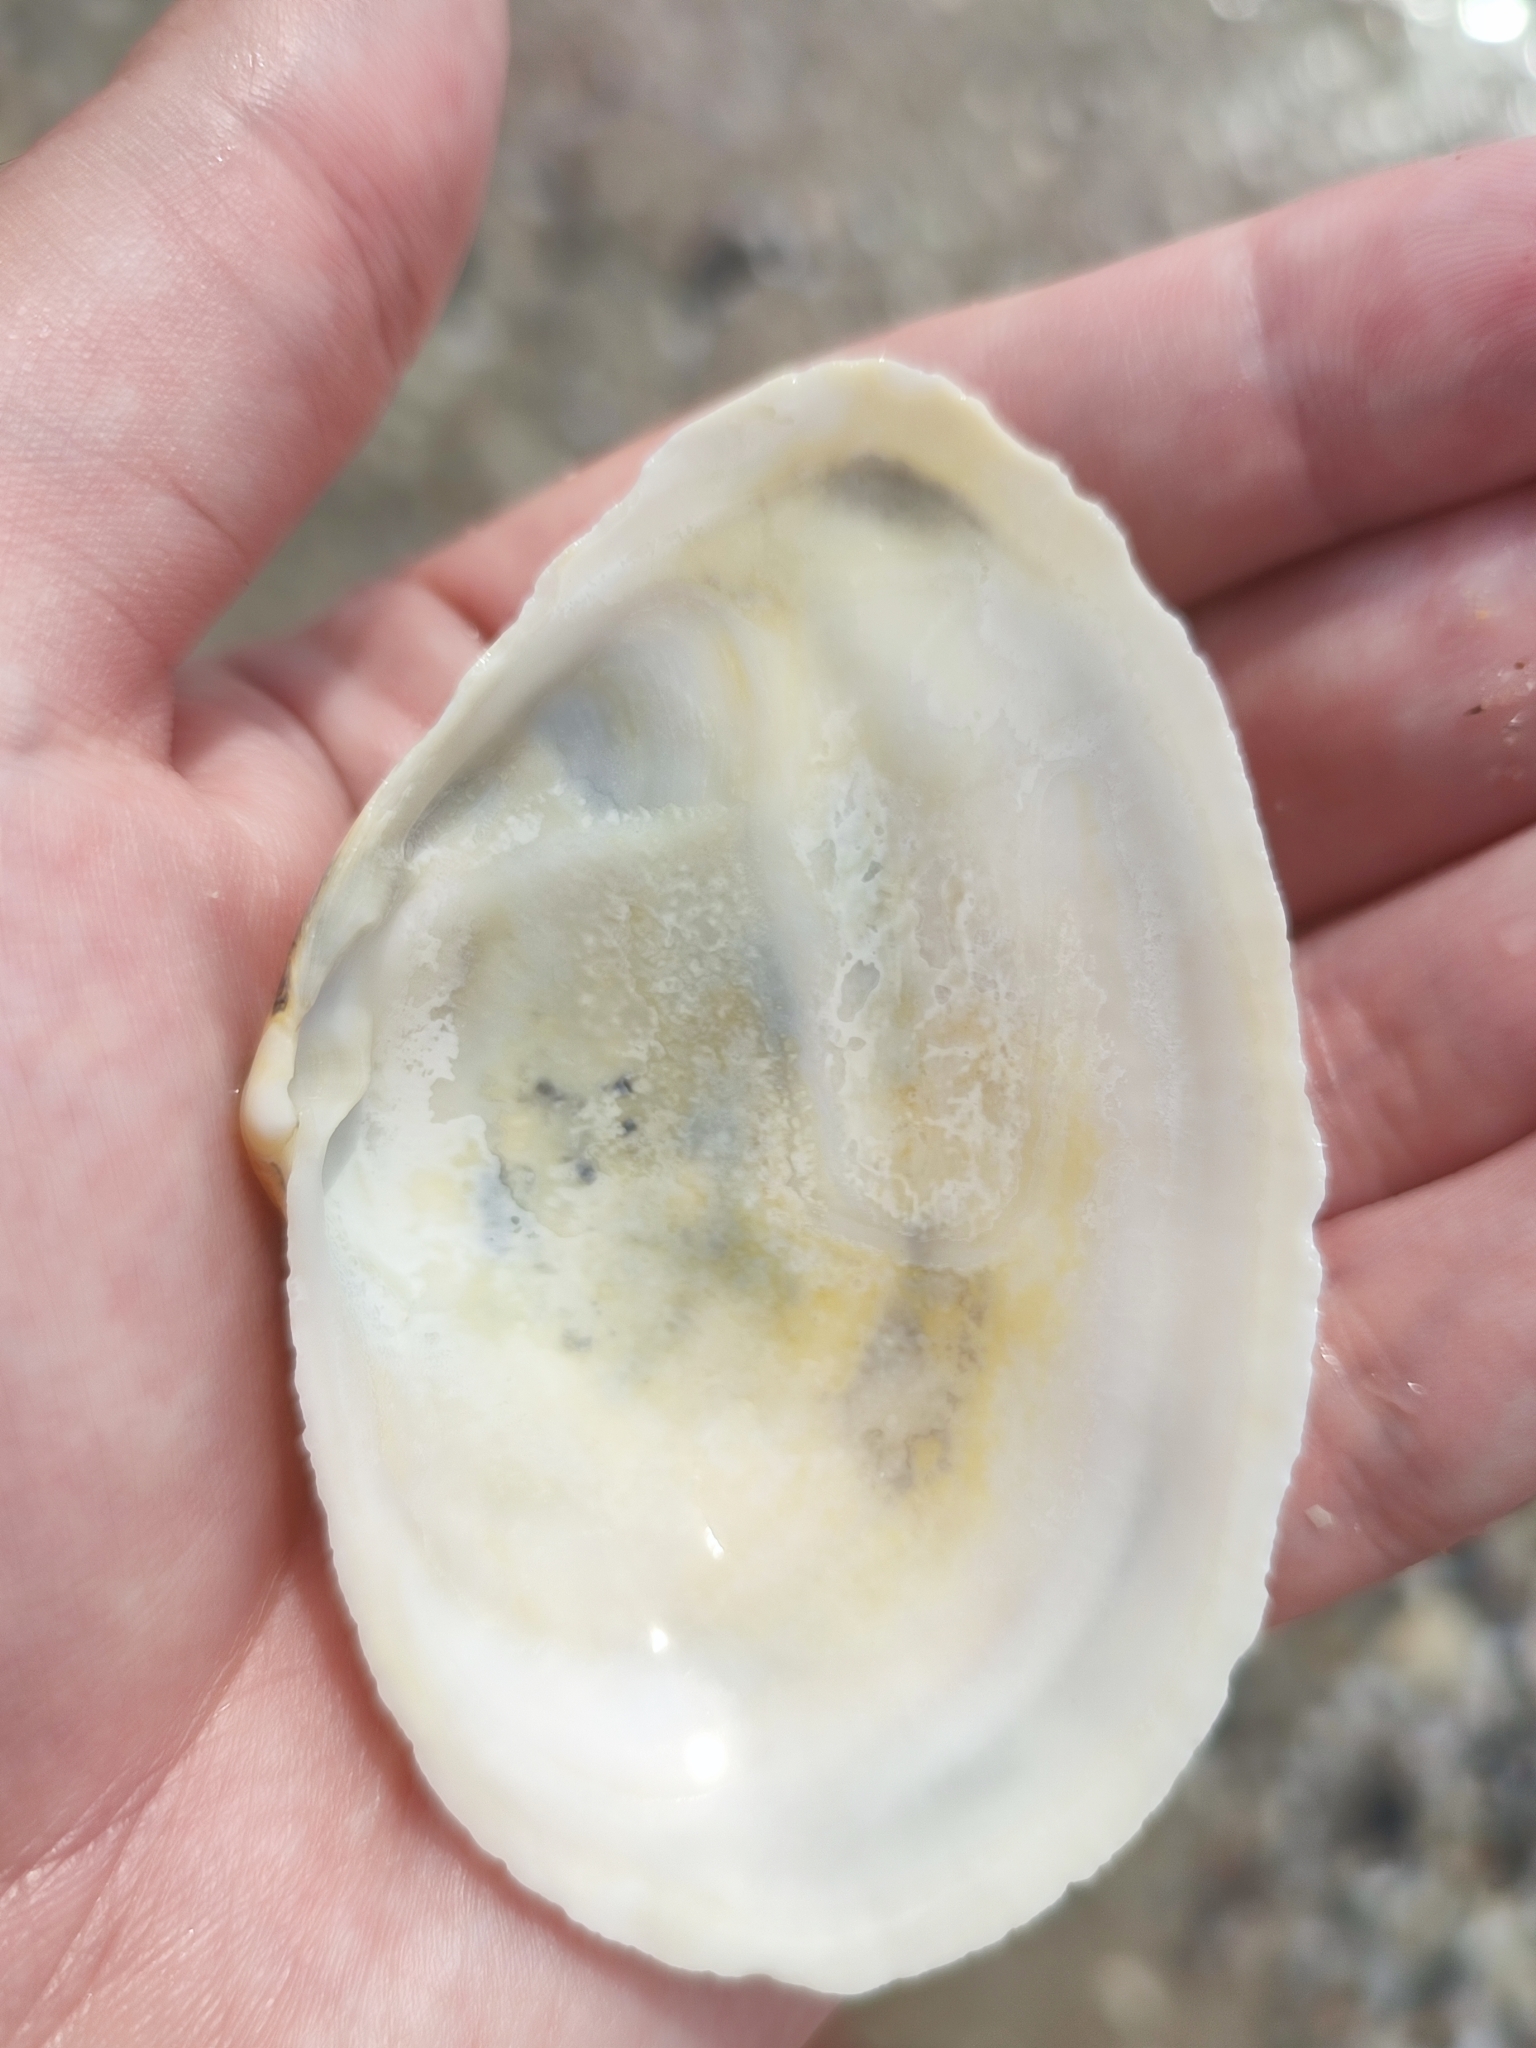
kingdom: Animalia
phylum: Mollusca
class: Bivalvia
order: Myida
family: Myidae
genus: Mya
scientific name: Mya arenaria
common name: Soft-shelled clam
